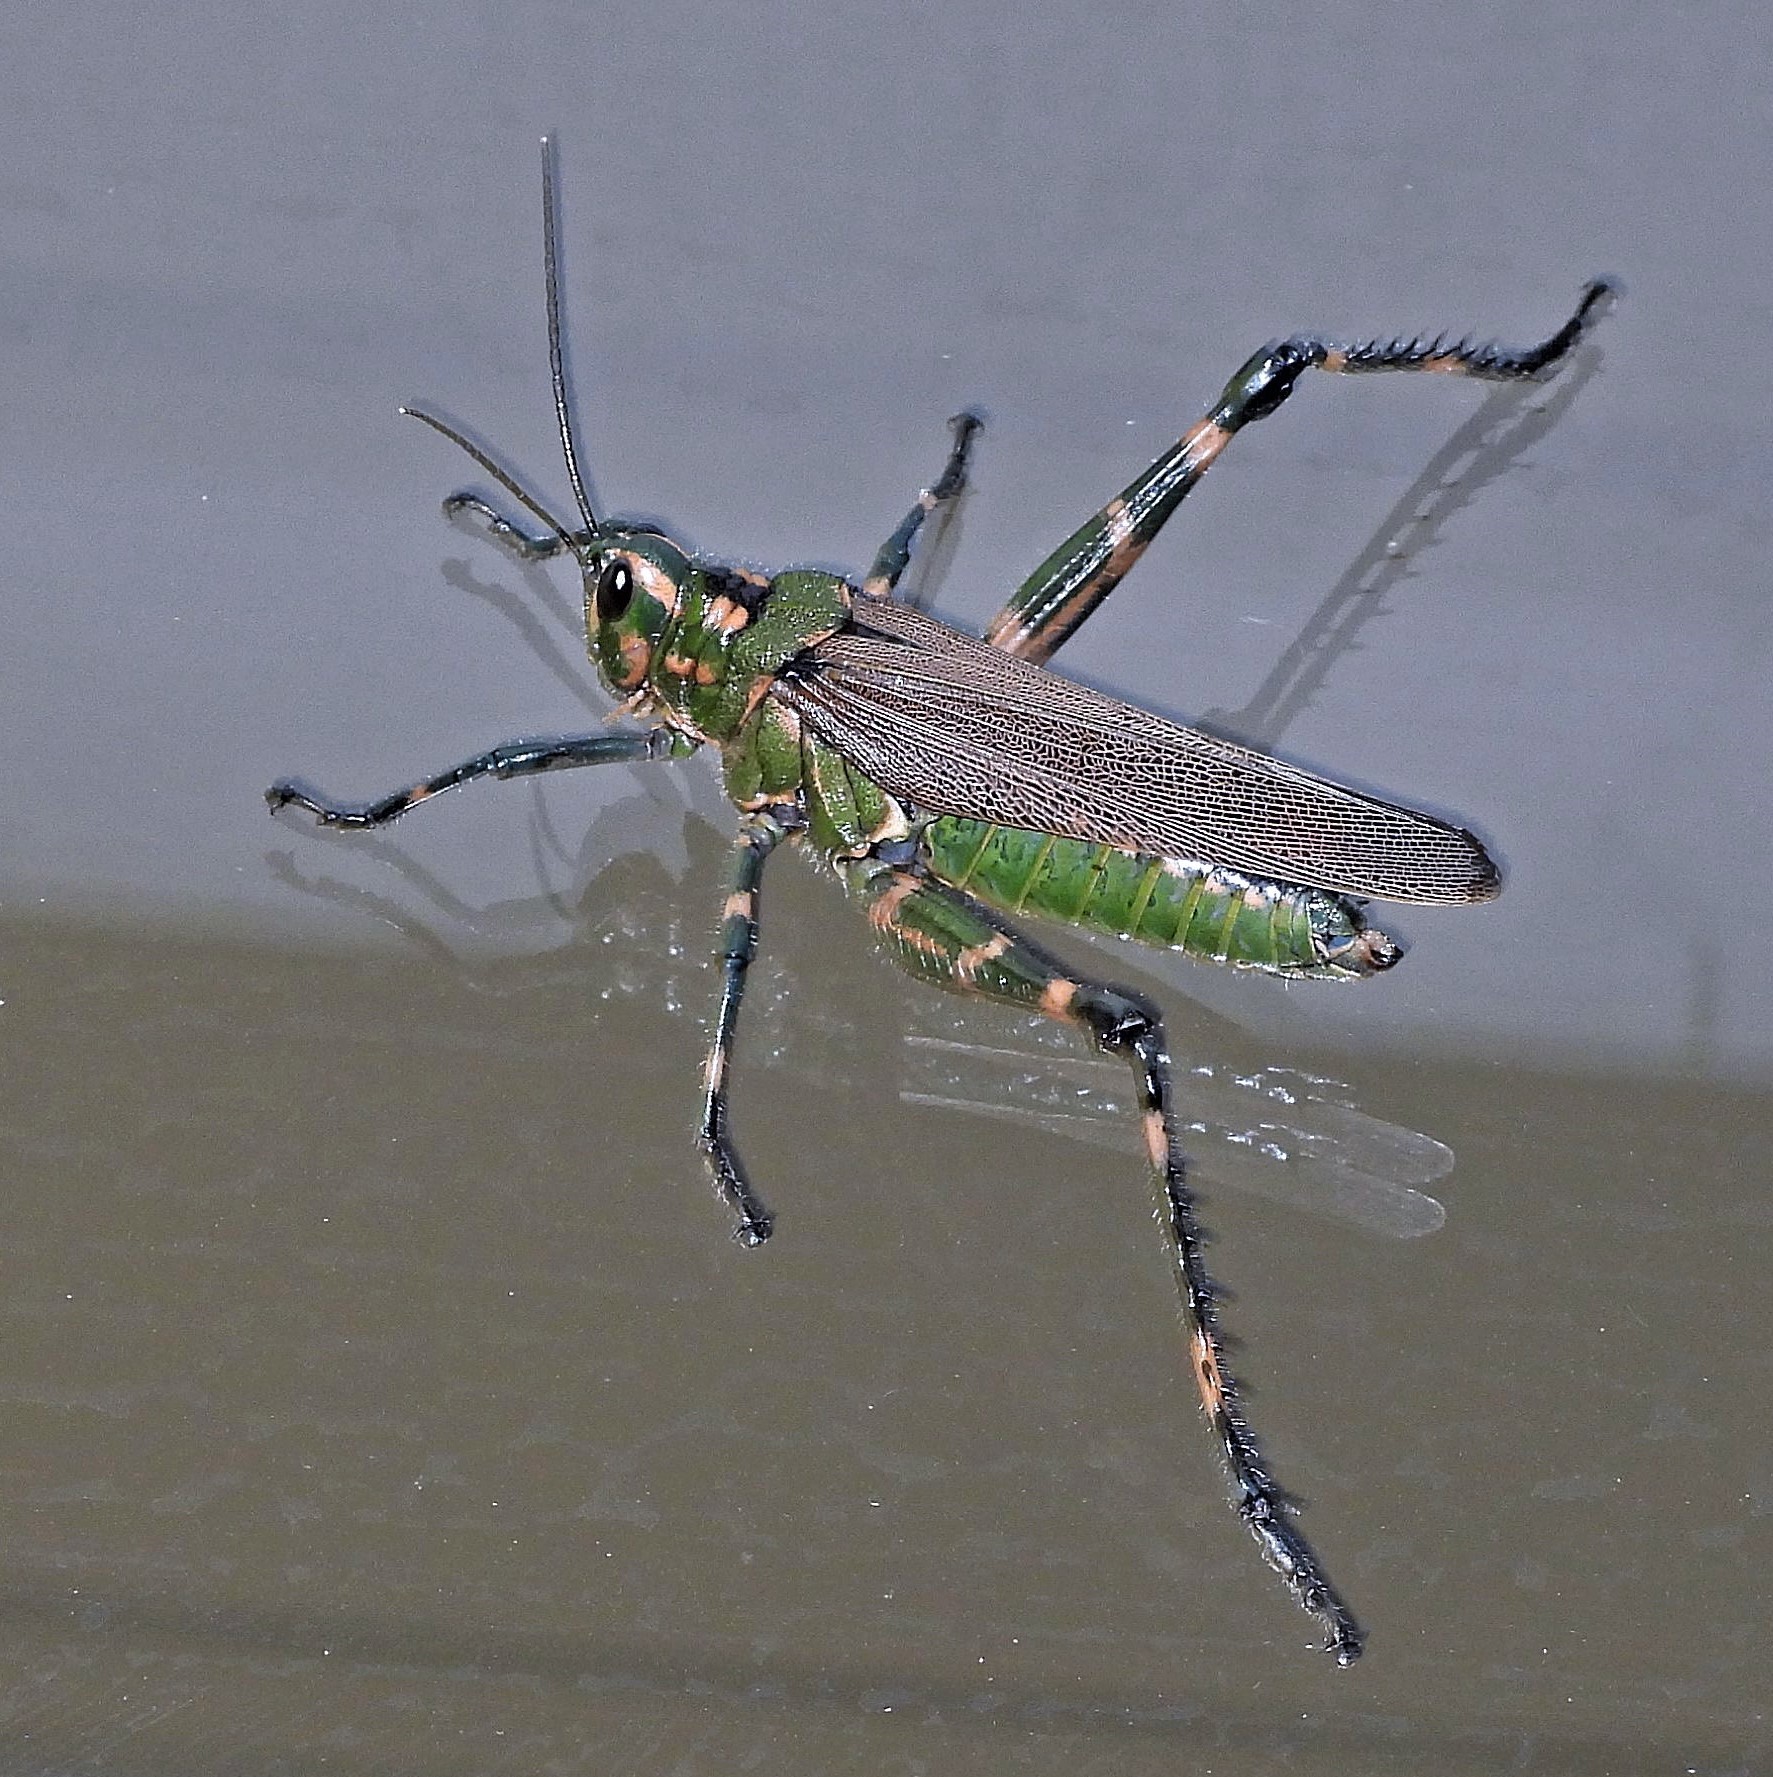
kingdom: Animalia
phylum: Arthropoda
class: Insecta
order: Orthoptera
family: Romaleidae
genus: Chromacris
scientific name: Chromacris speciosa
